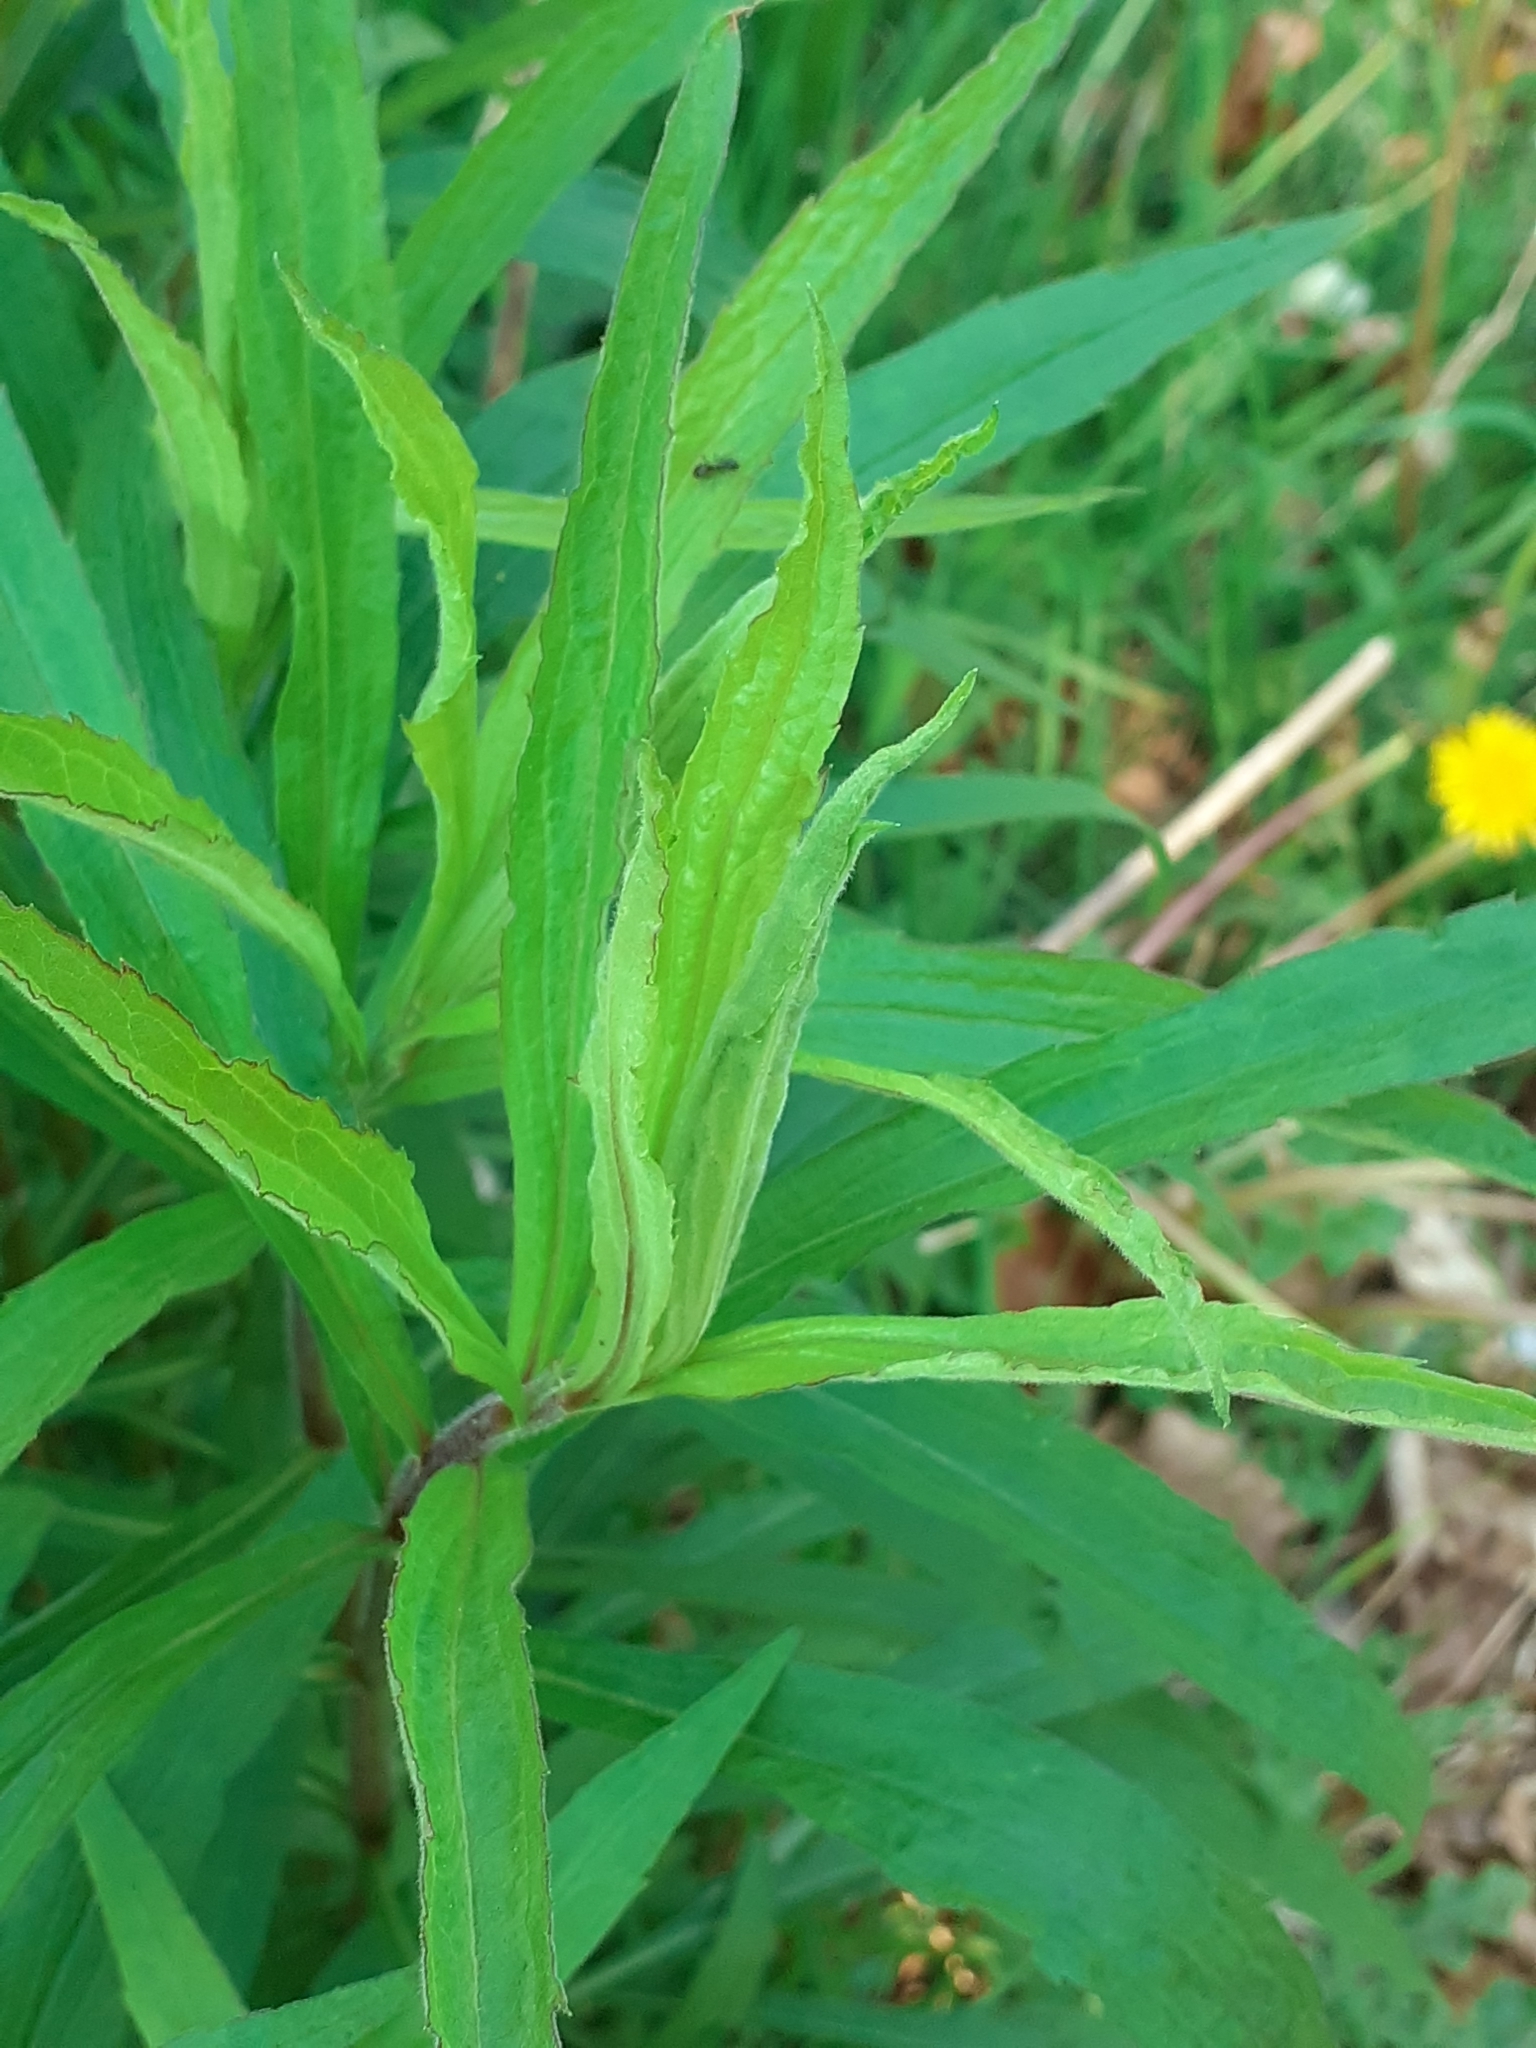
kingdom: Plantae
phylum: Tracheophyta
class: Magnoliopsida
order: Asterales
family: Asteraceae
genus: Solidago
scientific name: Solidago canadensis
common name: Canada goldenrod
